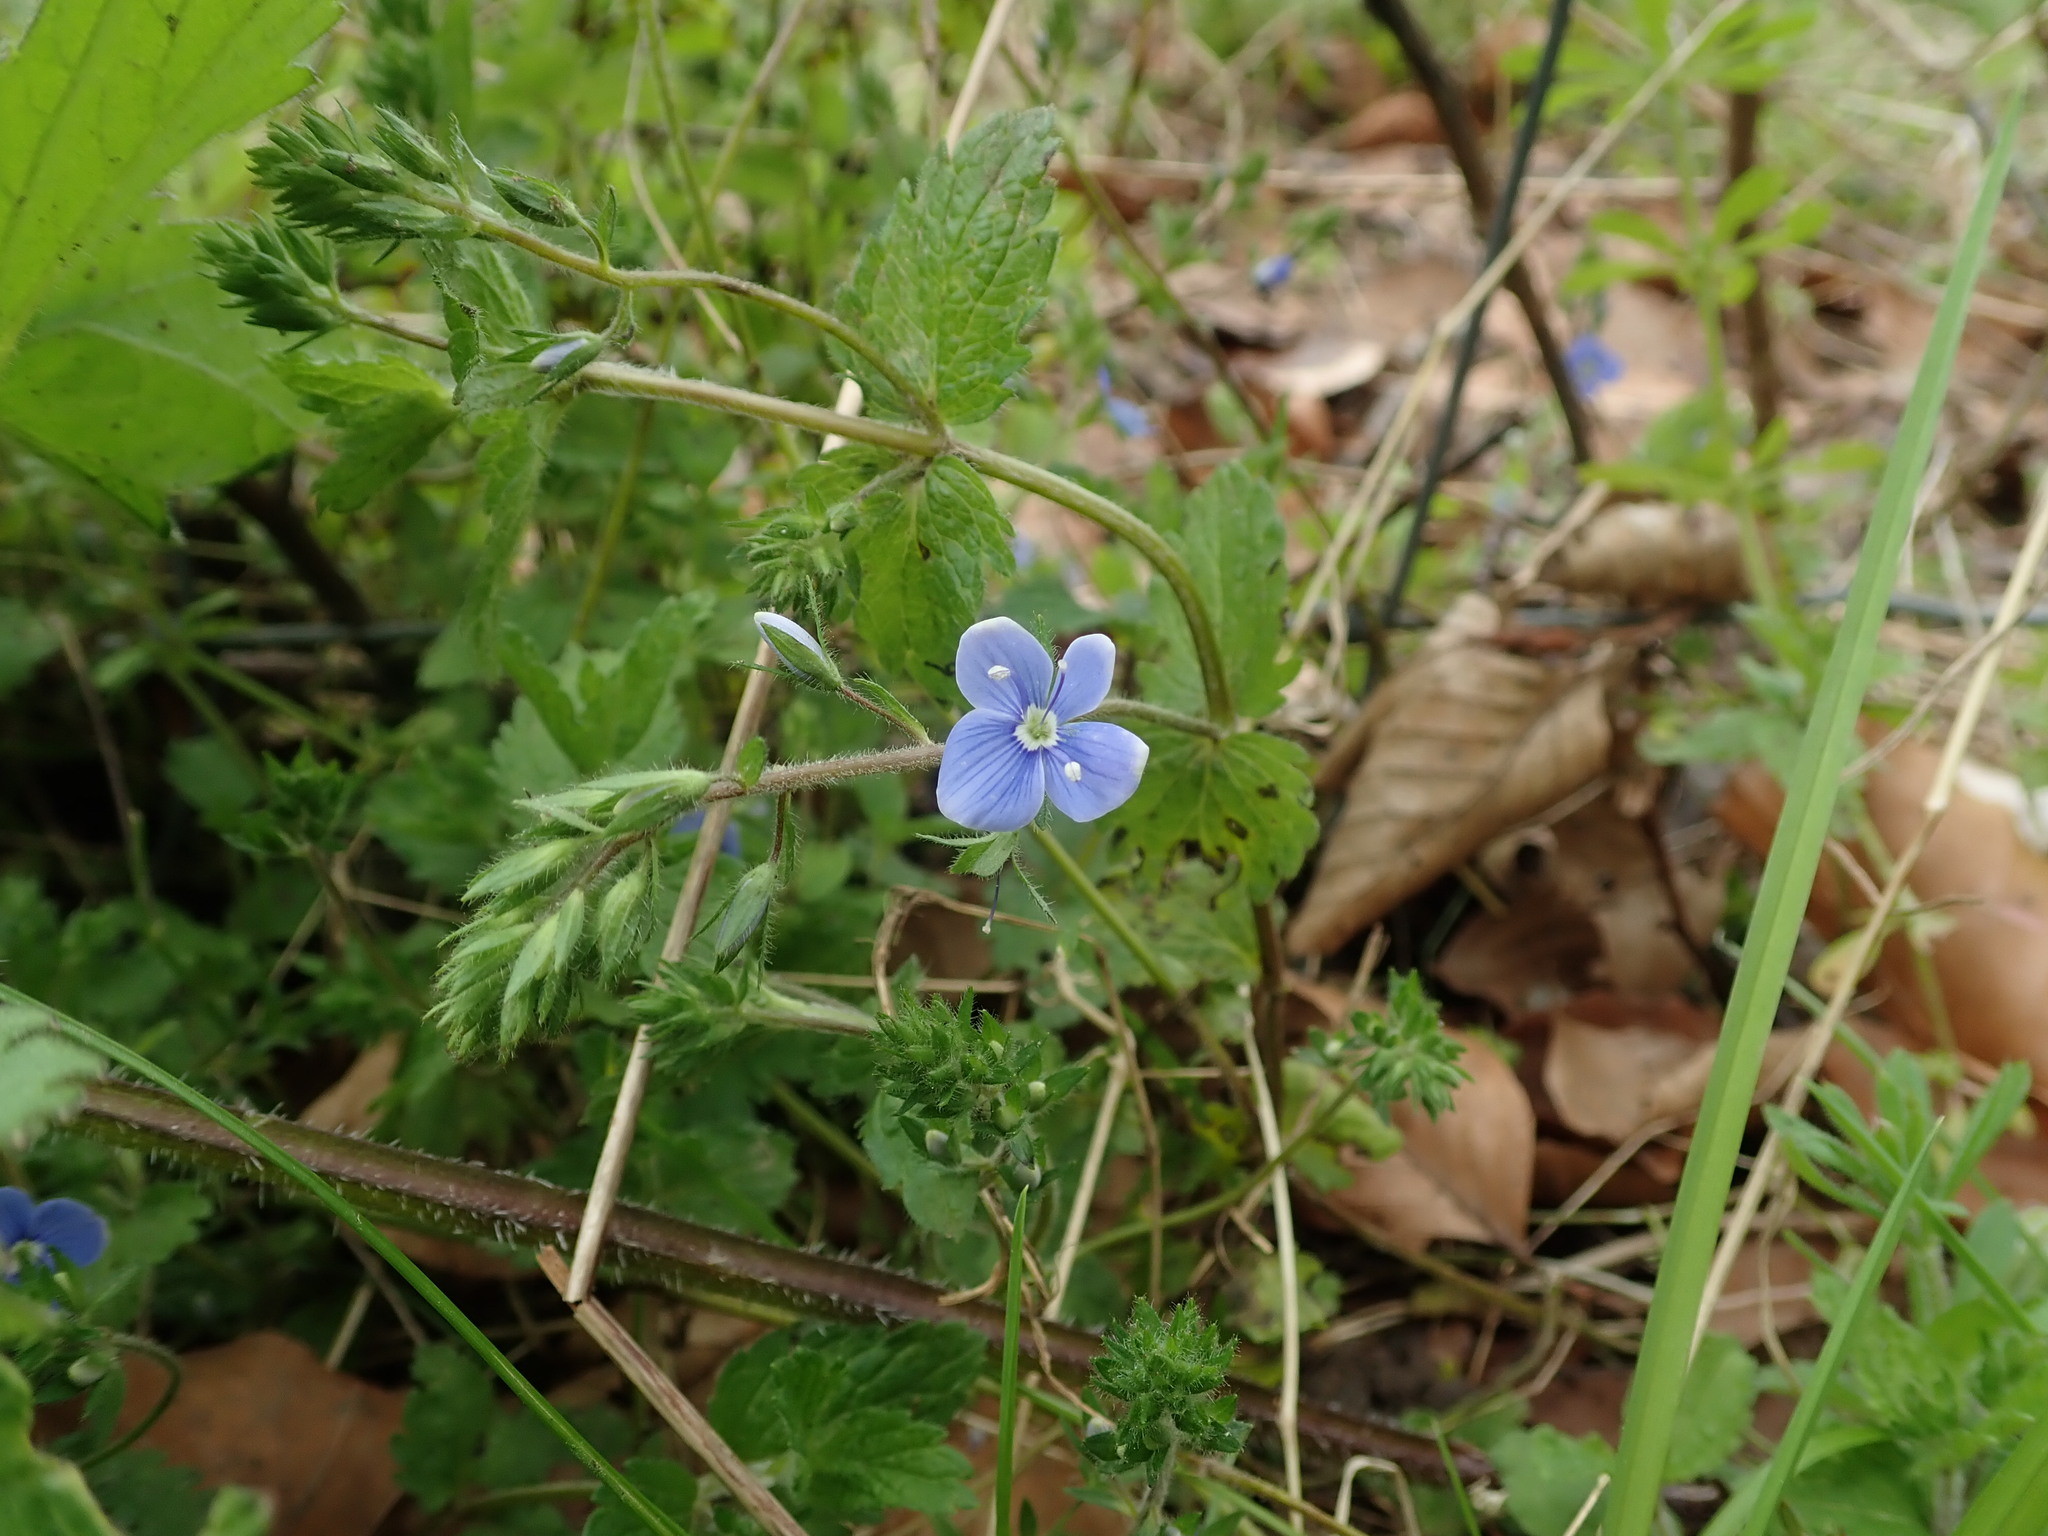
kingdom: Plantae
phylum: Tracheophyta
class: Magnoliopsida
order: Lamiales
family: Plantaginaceae
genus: Veronica
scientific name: Veronica chamaedrys
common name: Germander speedwell
